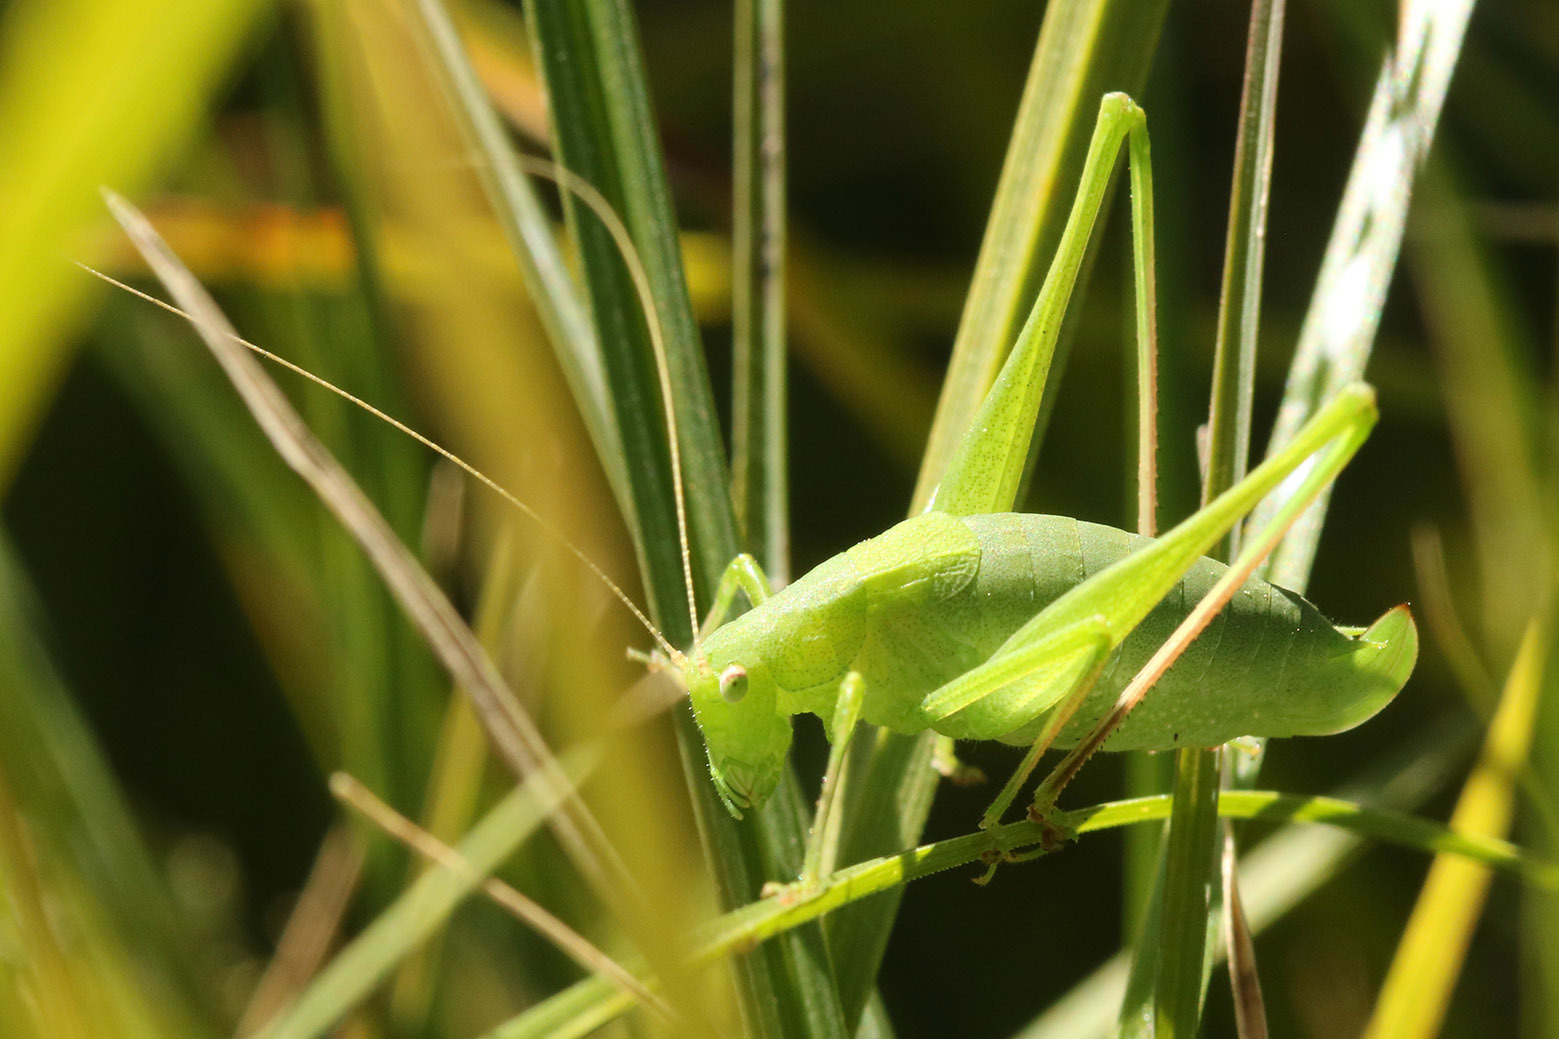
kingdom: Animalia
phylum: Arthropoda
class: Insecta
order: Orthoptera
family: Tettigoniidae
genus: Anisophya
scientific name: Anisophya
